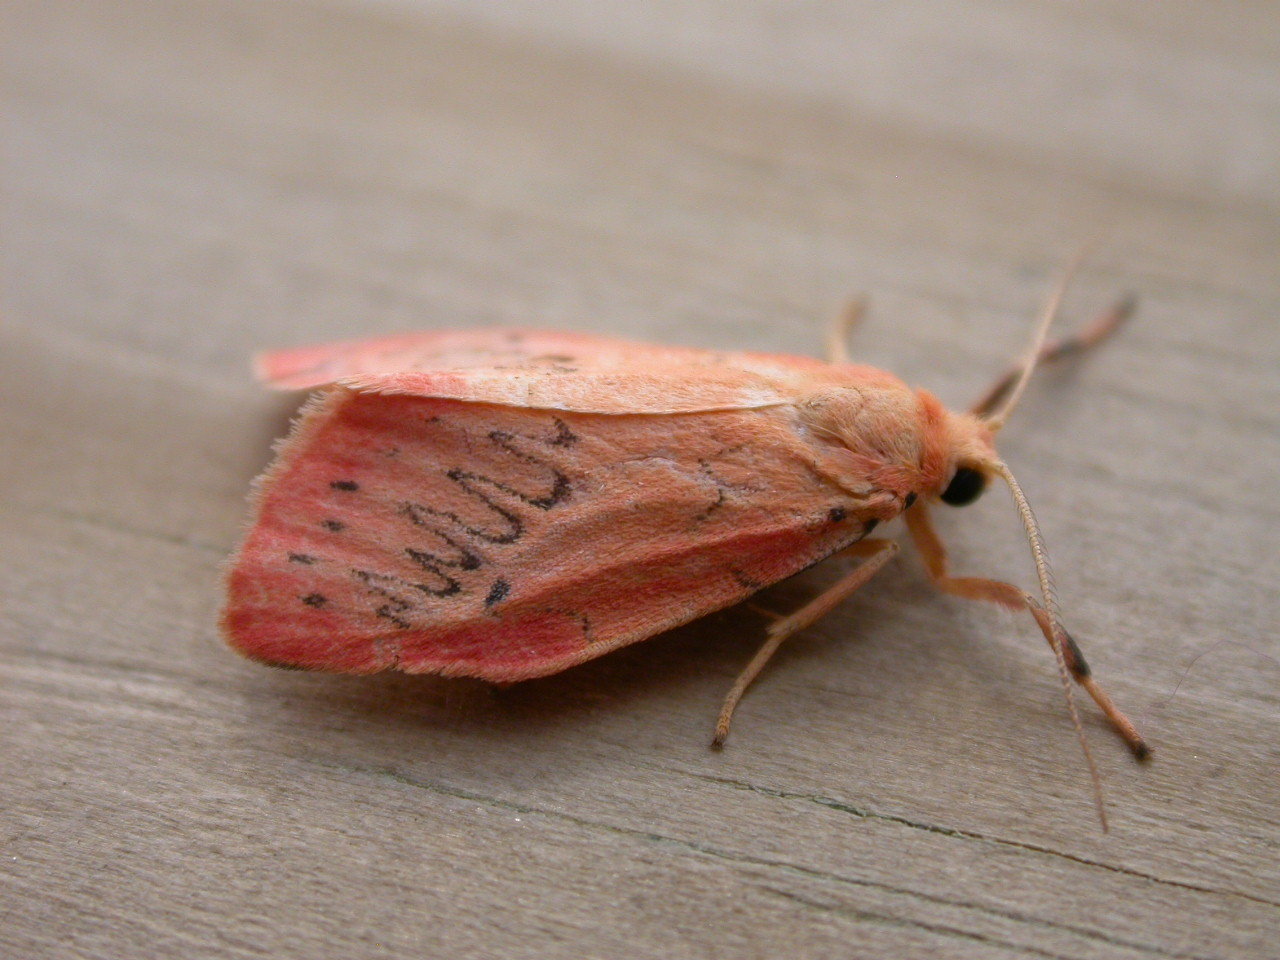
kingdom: Animalia
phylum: Arthropoda
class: Insecta
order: Lepidoptera
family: Erebidae
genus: Miltochrista
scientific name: Miltochrista miniata
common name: Rosy footman
